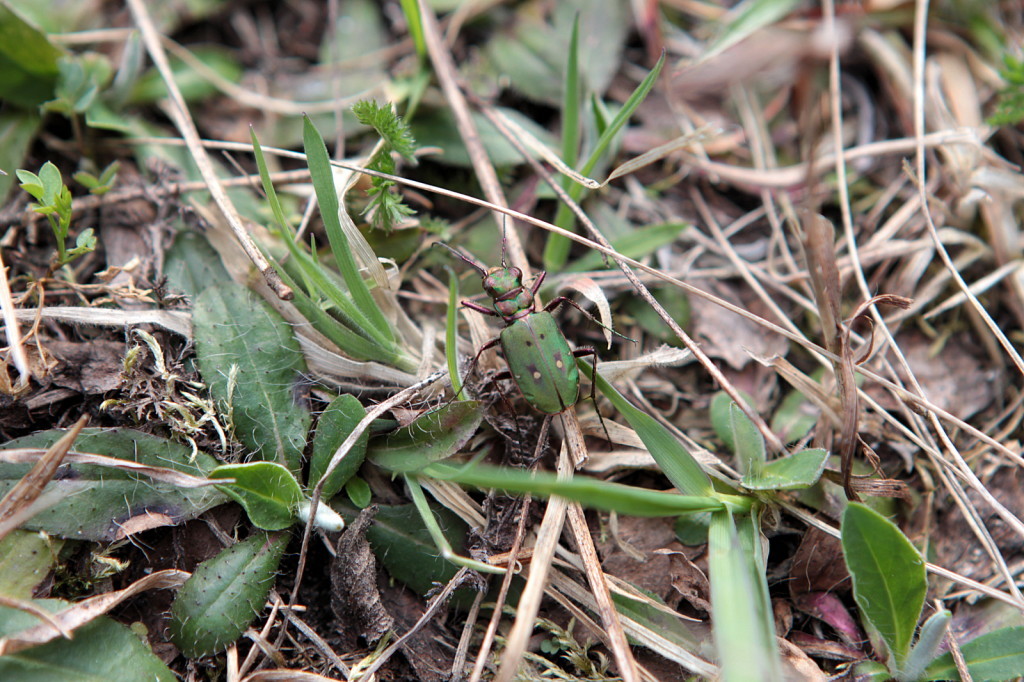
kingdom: Animalia
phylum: Arthropoda
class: Insecta
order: Coleoptera
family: Carabidae
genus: Cicindela
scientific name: Cicindela campestris
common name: Common tiger beetle
